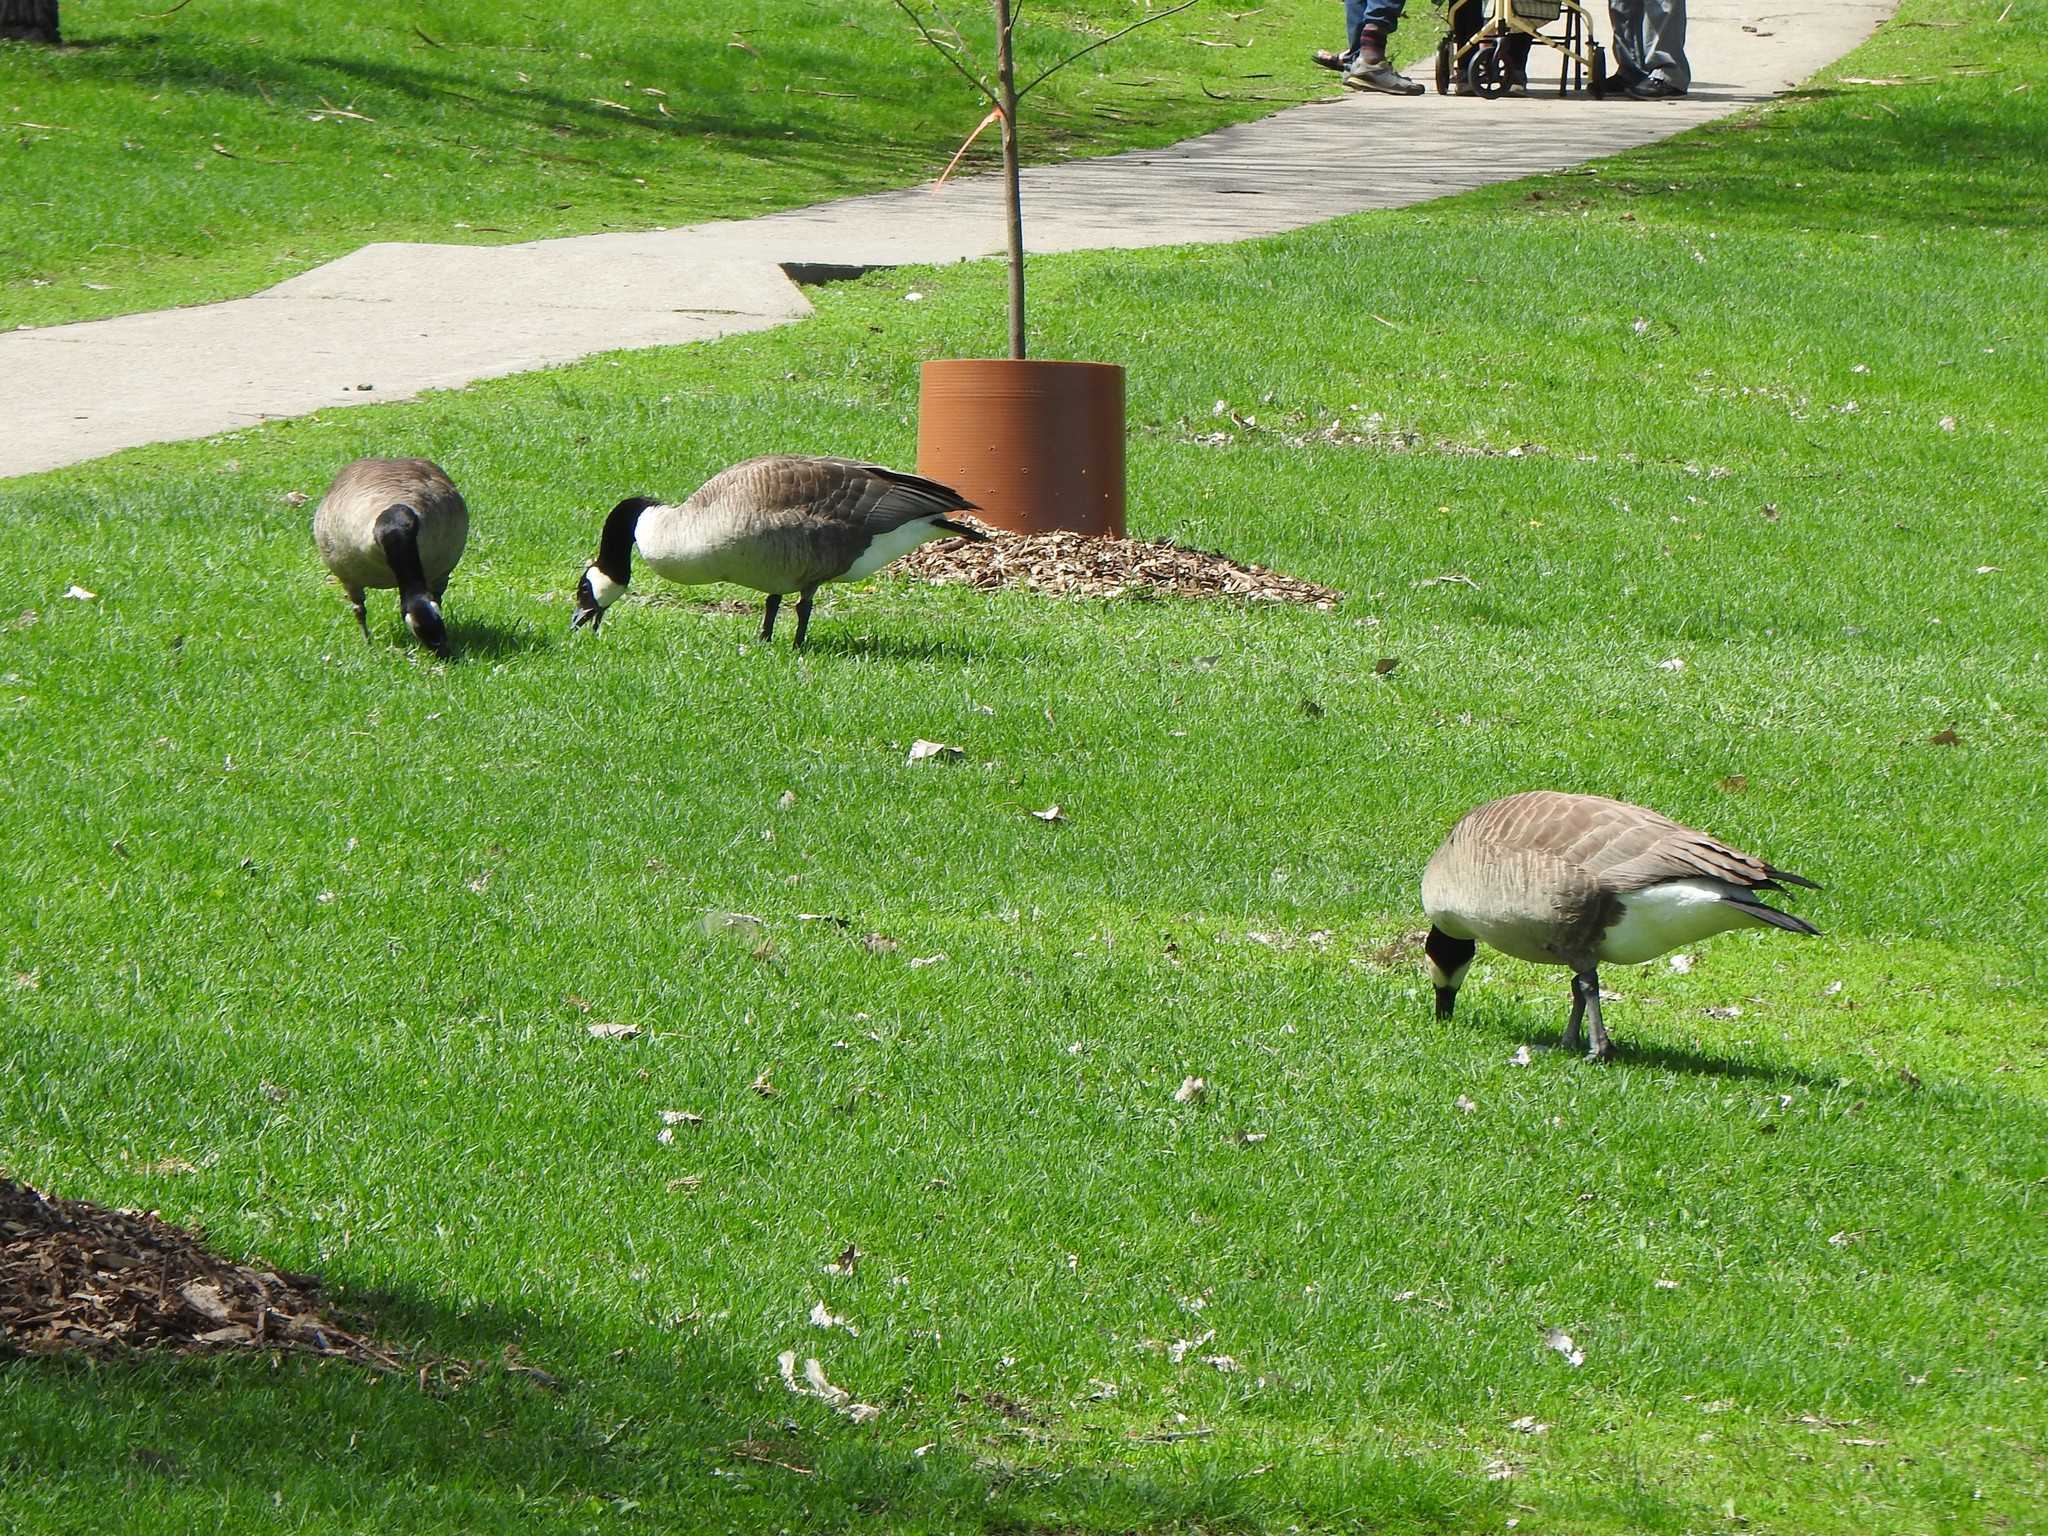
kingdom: Animalia
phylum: Chordata
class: Aves
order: Anseriformes
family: Anatidae
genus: Branta
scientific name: Branta canadensis
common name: Canada goose
